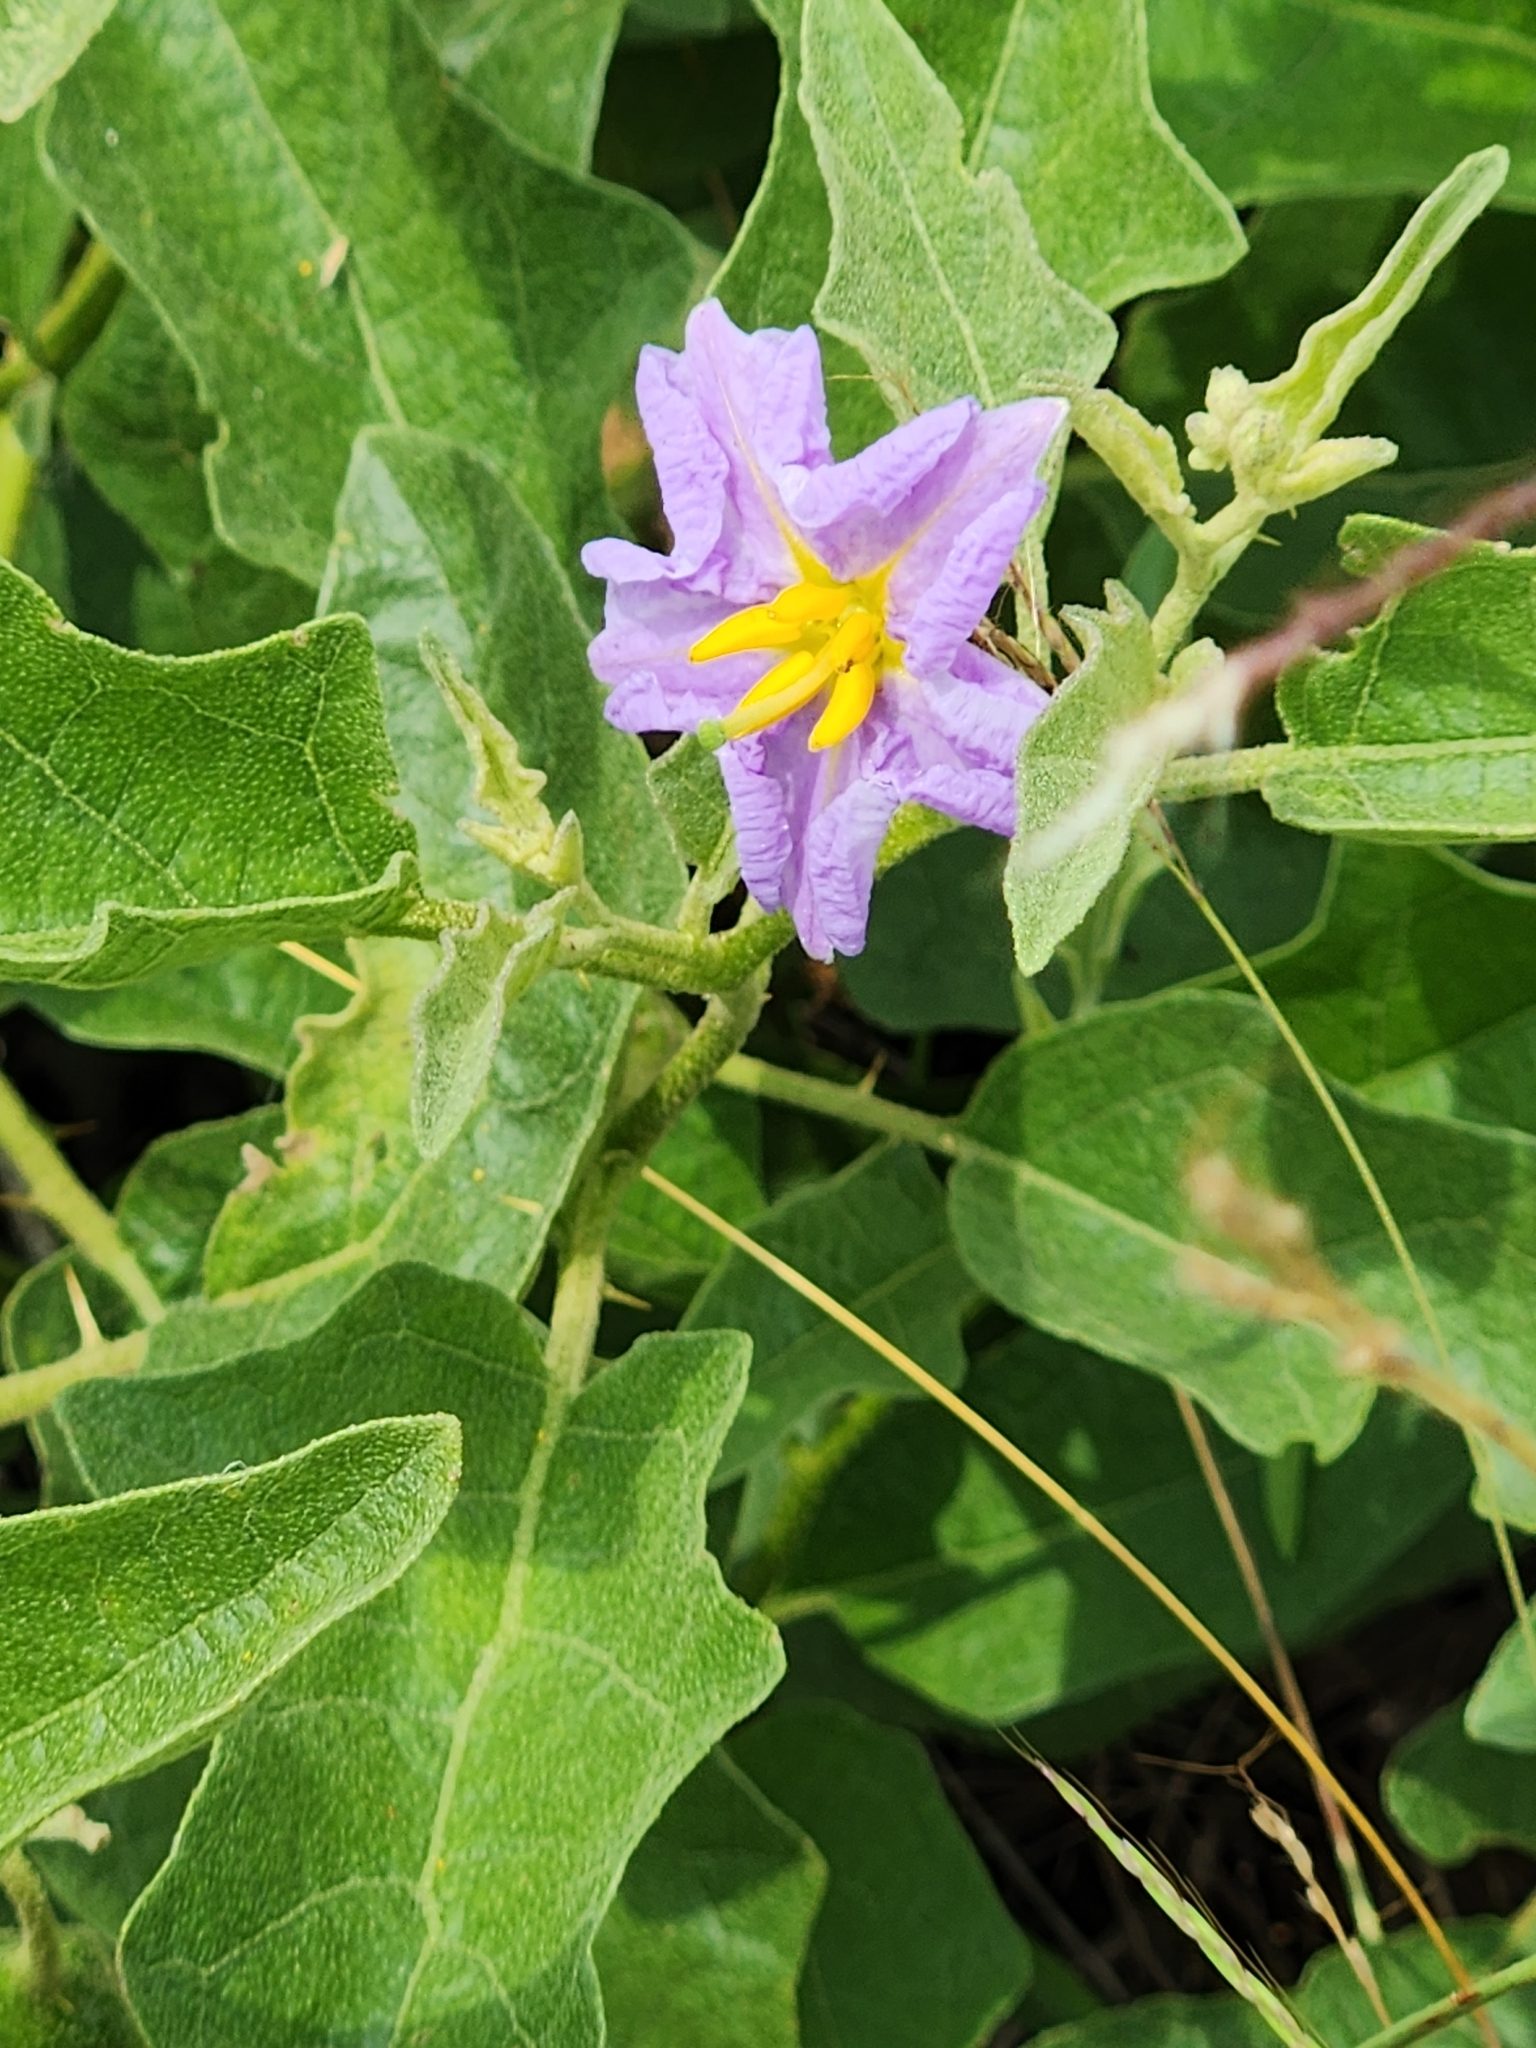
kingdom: Plantae
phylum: Tracheophyta
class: Magnoliopsida
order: Solanales
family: Solanaceae
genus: Solanum
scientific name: Solanum dimidiatum
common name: Carolina horse-nettle
